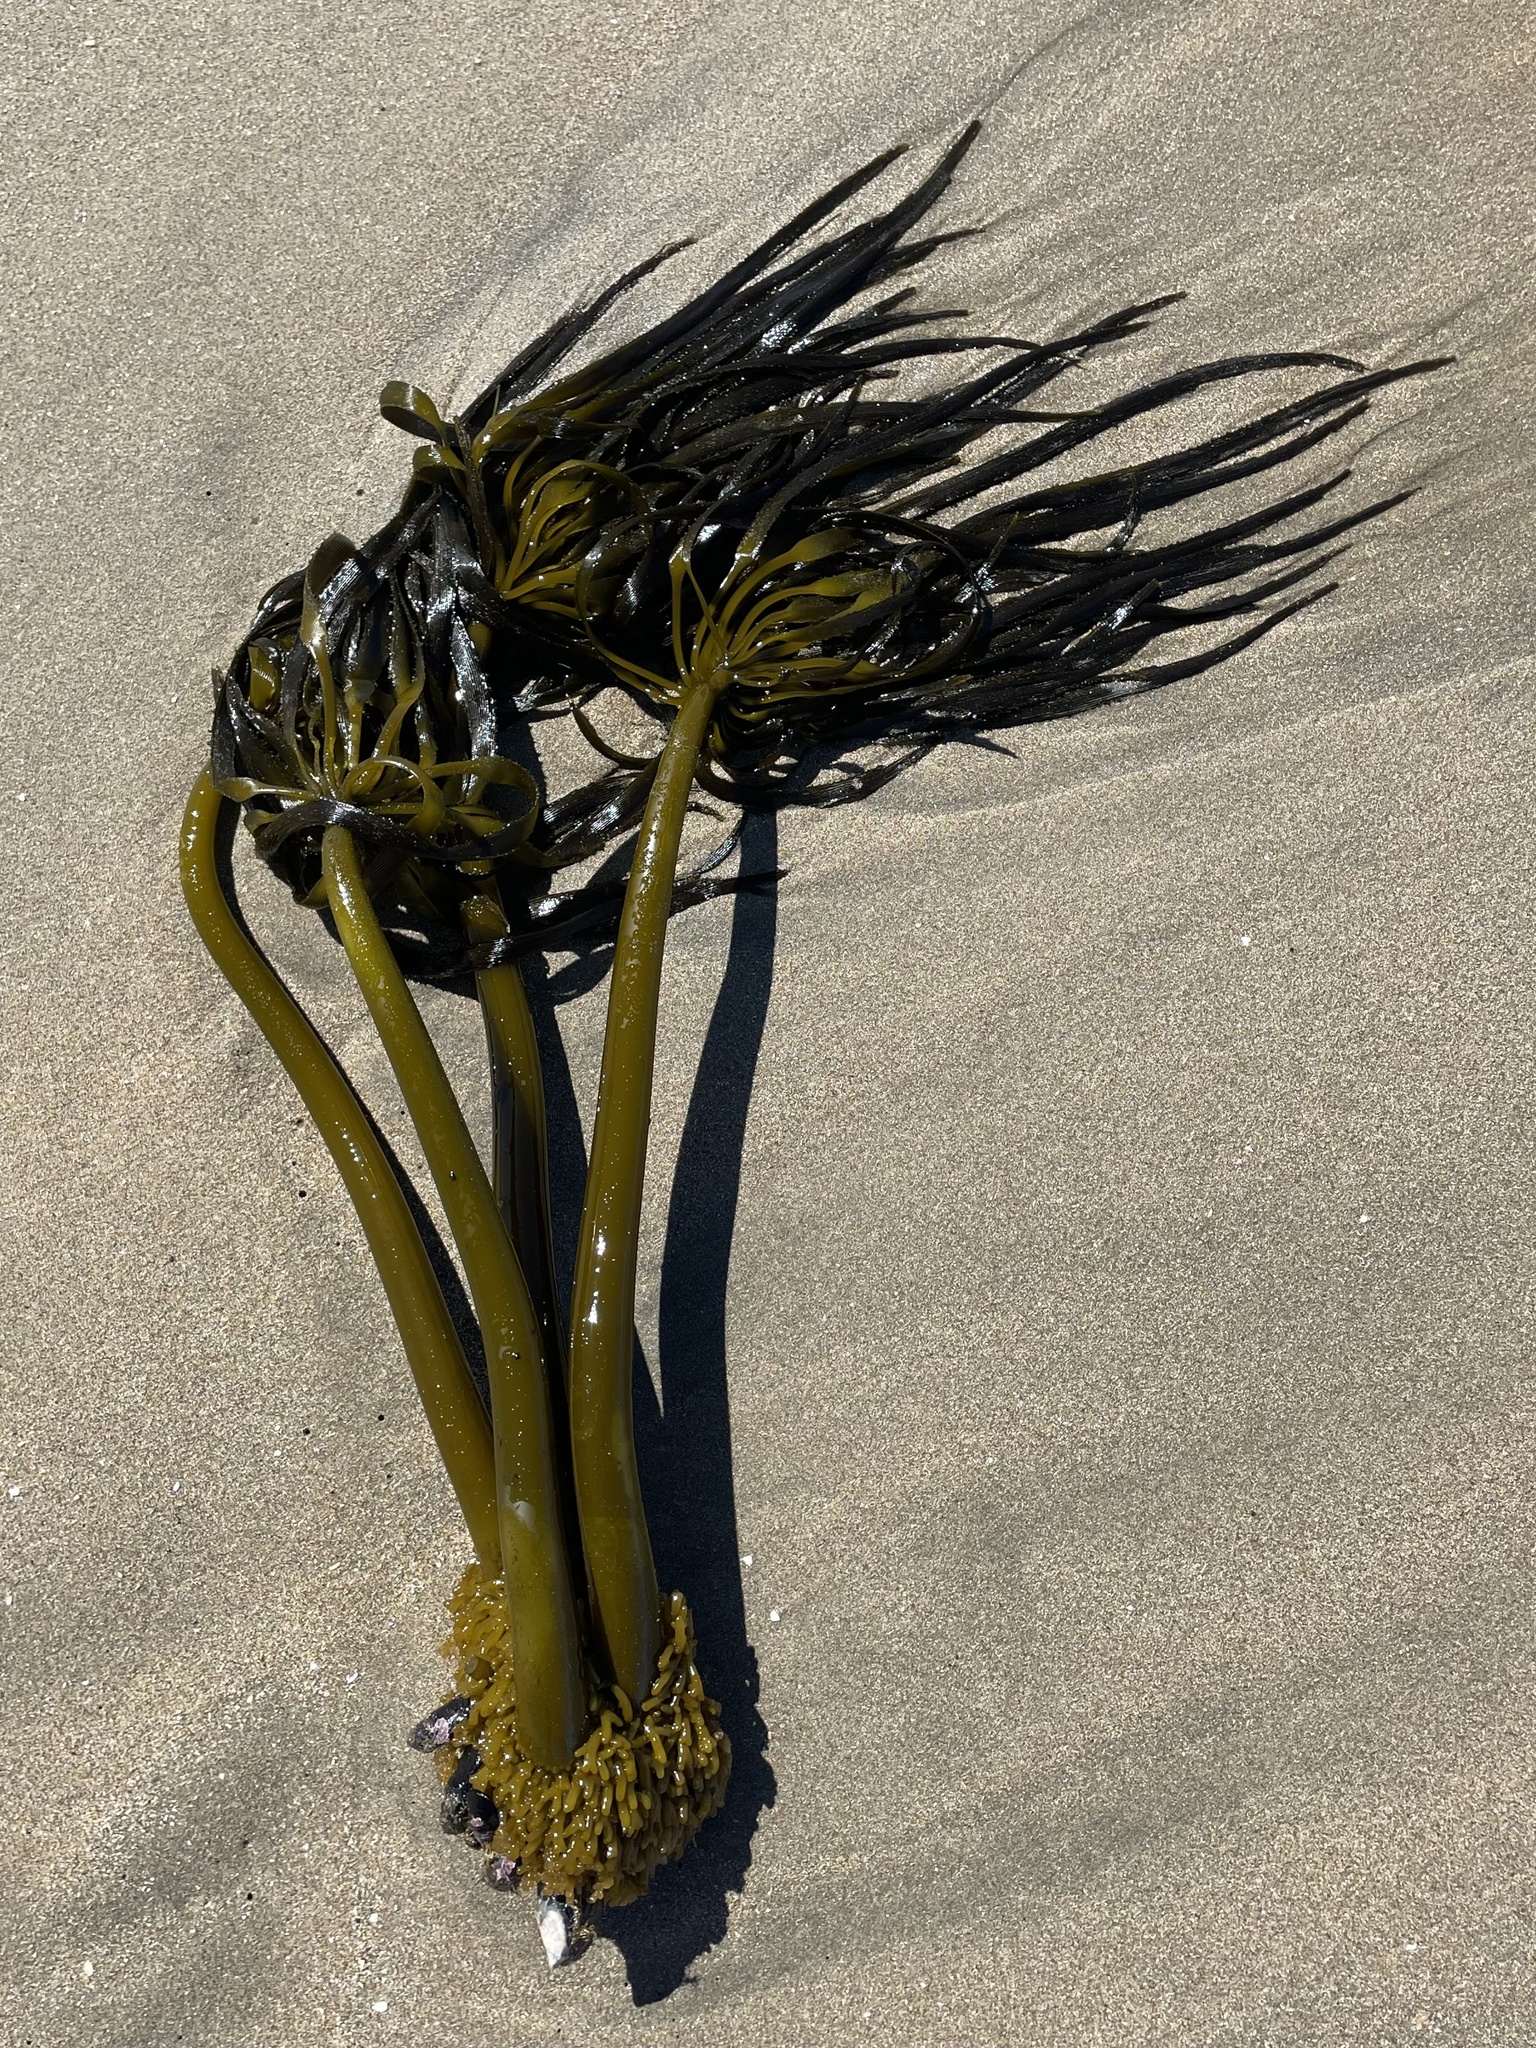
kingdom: Chromista
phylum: Ochrophyta
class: Phaeophyceae
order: Laminariales
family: Laminariaceae
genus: Postelsia
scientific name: Postelsia palmiformis
